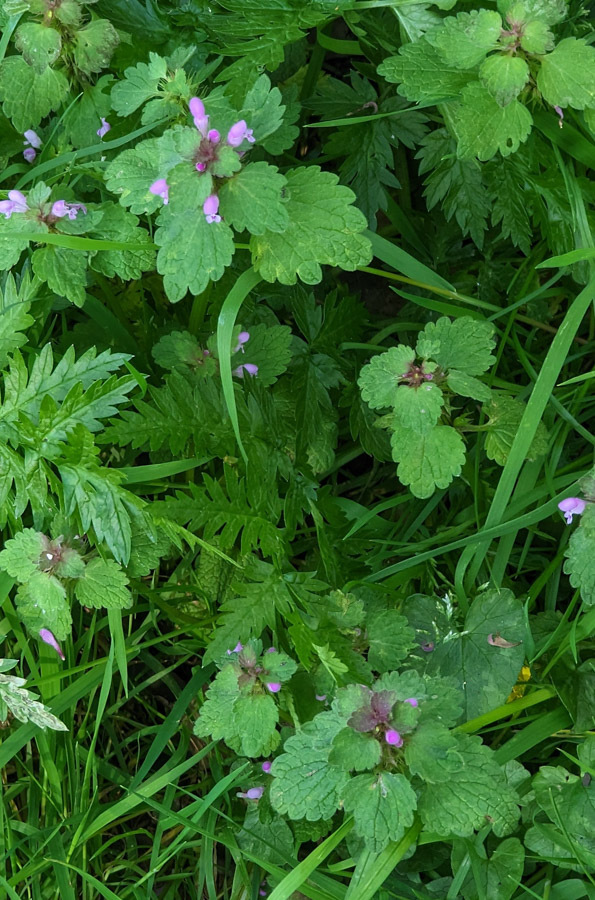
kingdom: Plantae
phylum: Tracheophyta
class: Magnoliopsida
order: Lamiales
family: Lamiaceae
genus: Lamium
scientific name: Lamium purpureum
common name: Red dead-nettle
